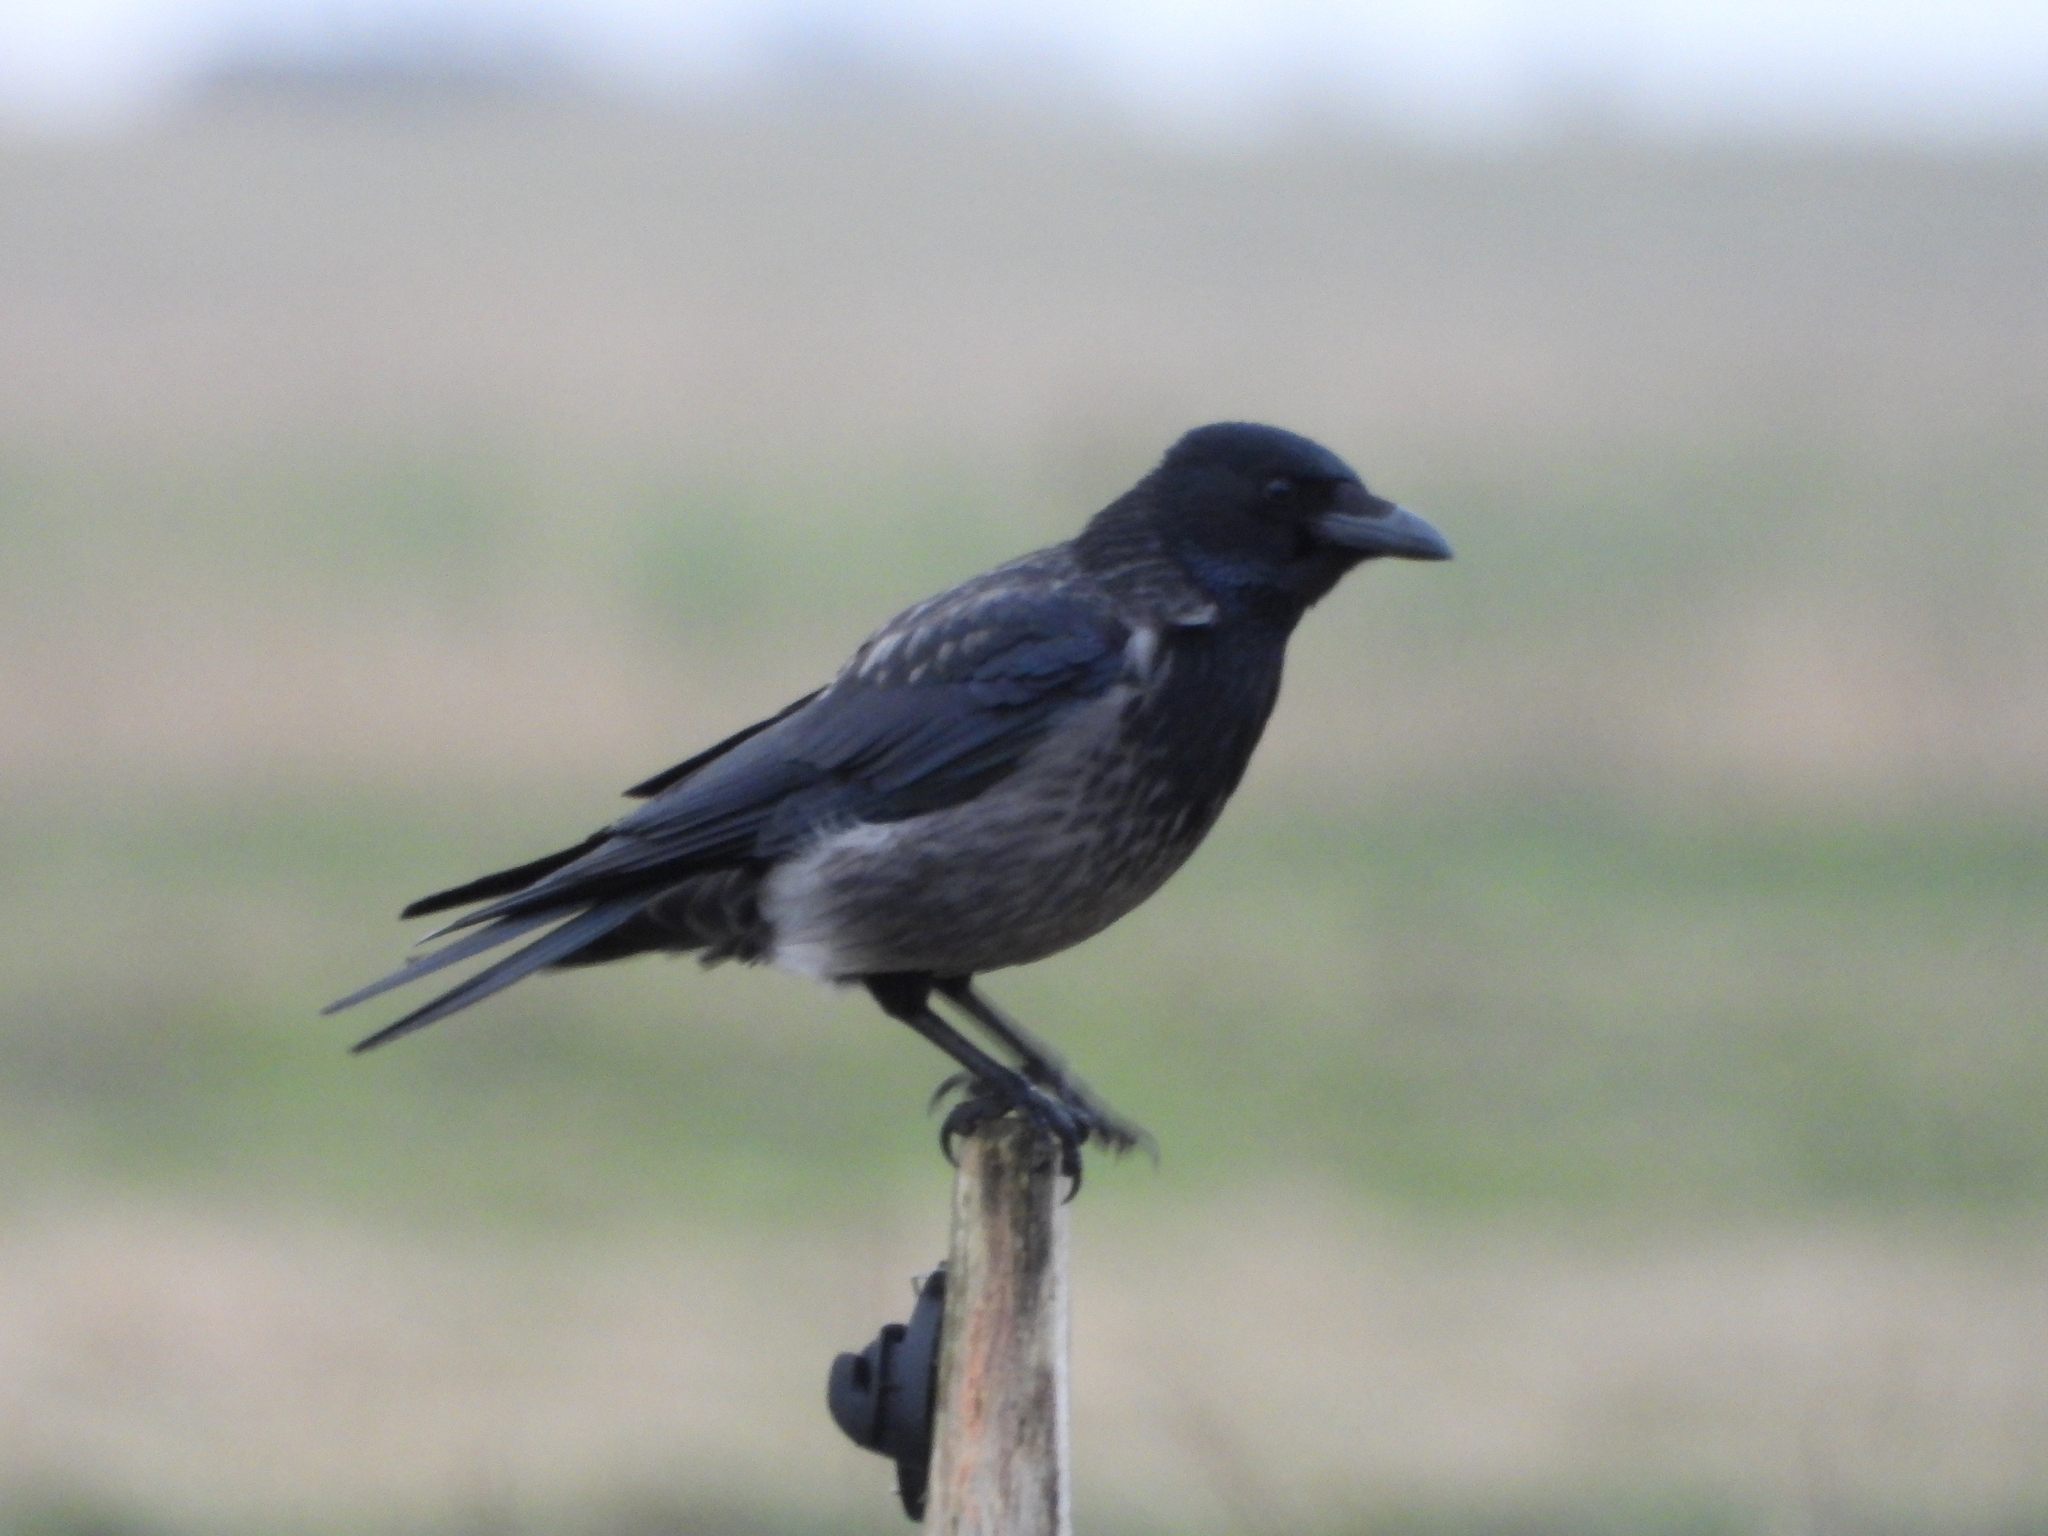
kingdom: Animalia
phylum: Chordata
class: Aves
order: Passeriformes
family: Corvidae
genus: Corvus
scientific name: Corvus
